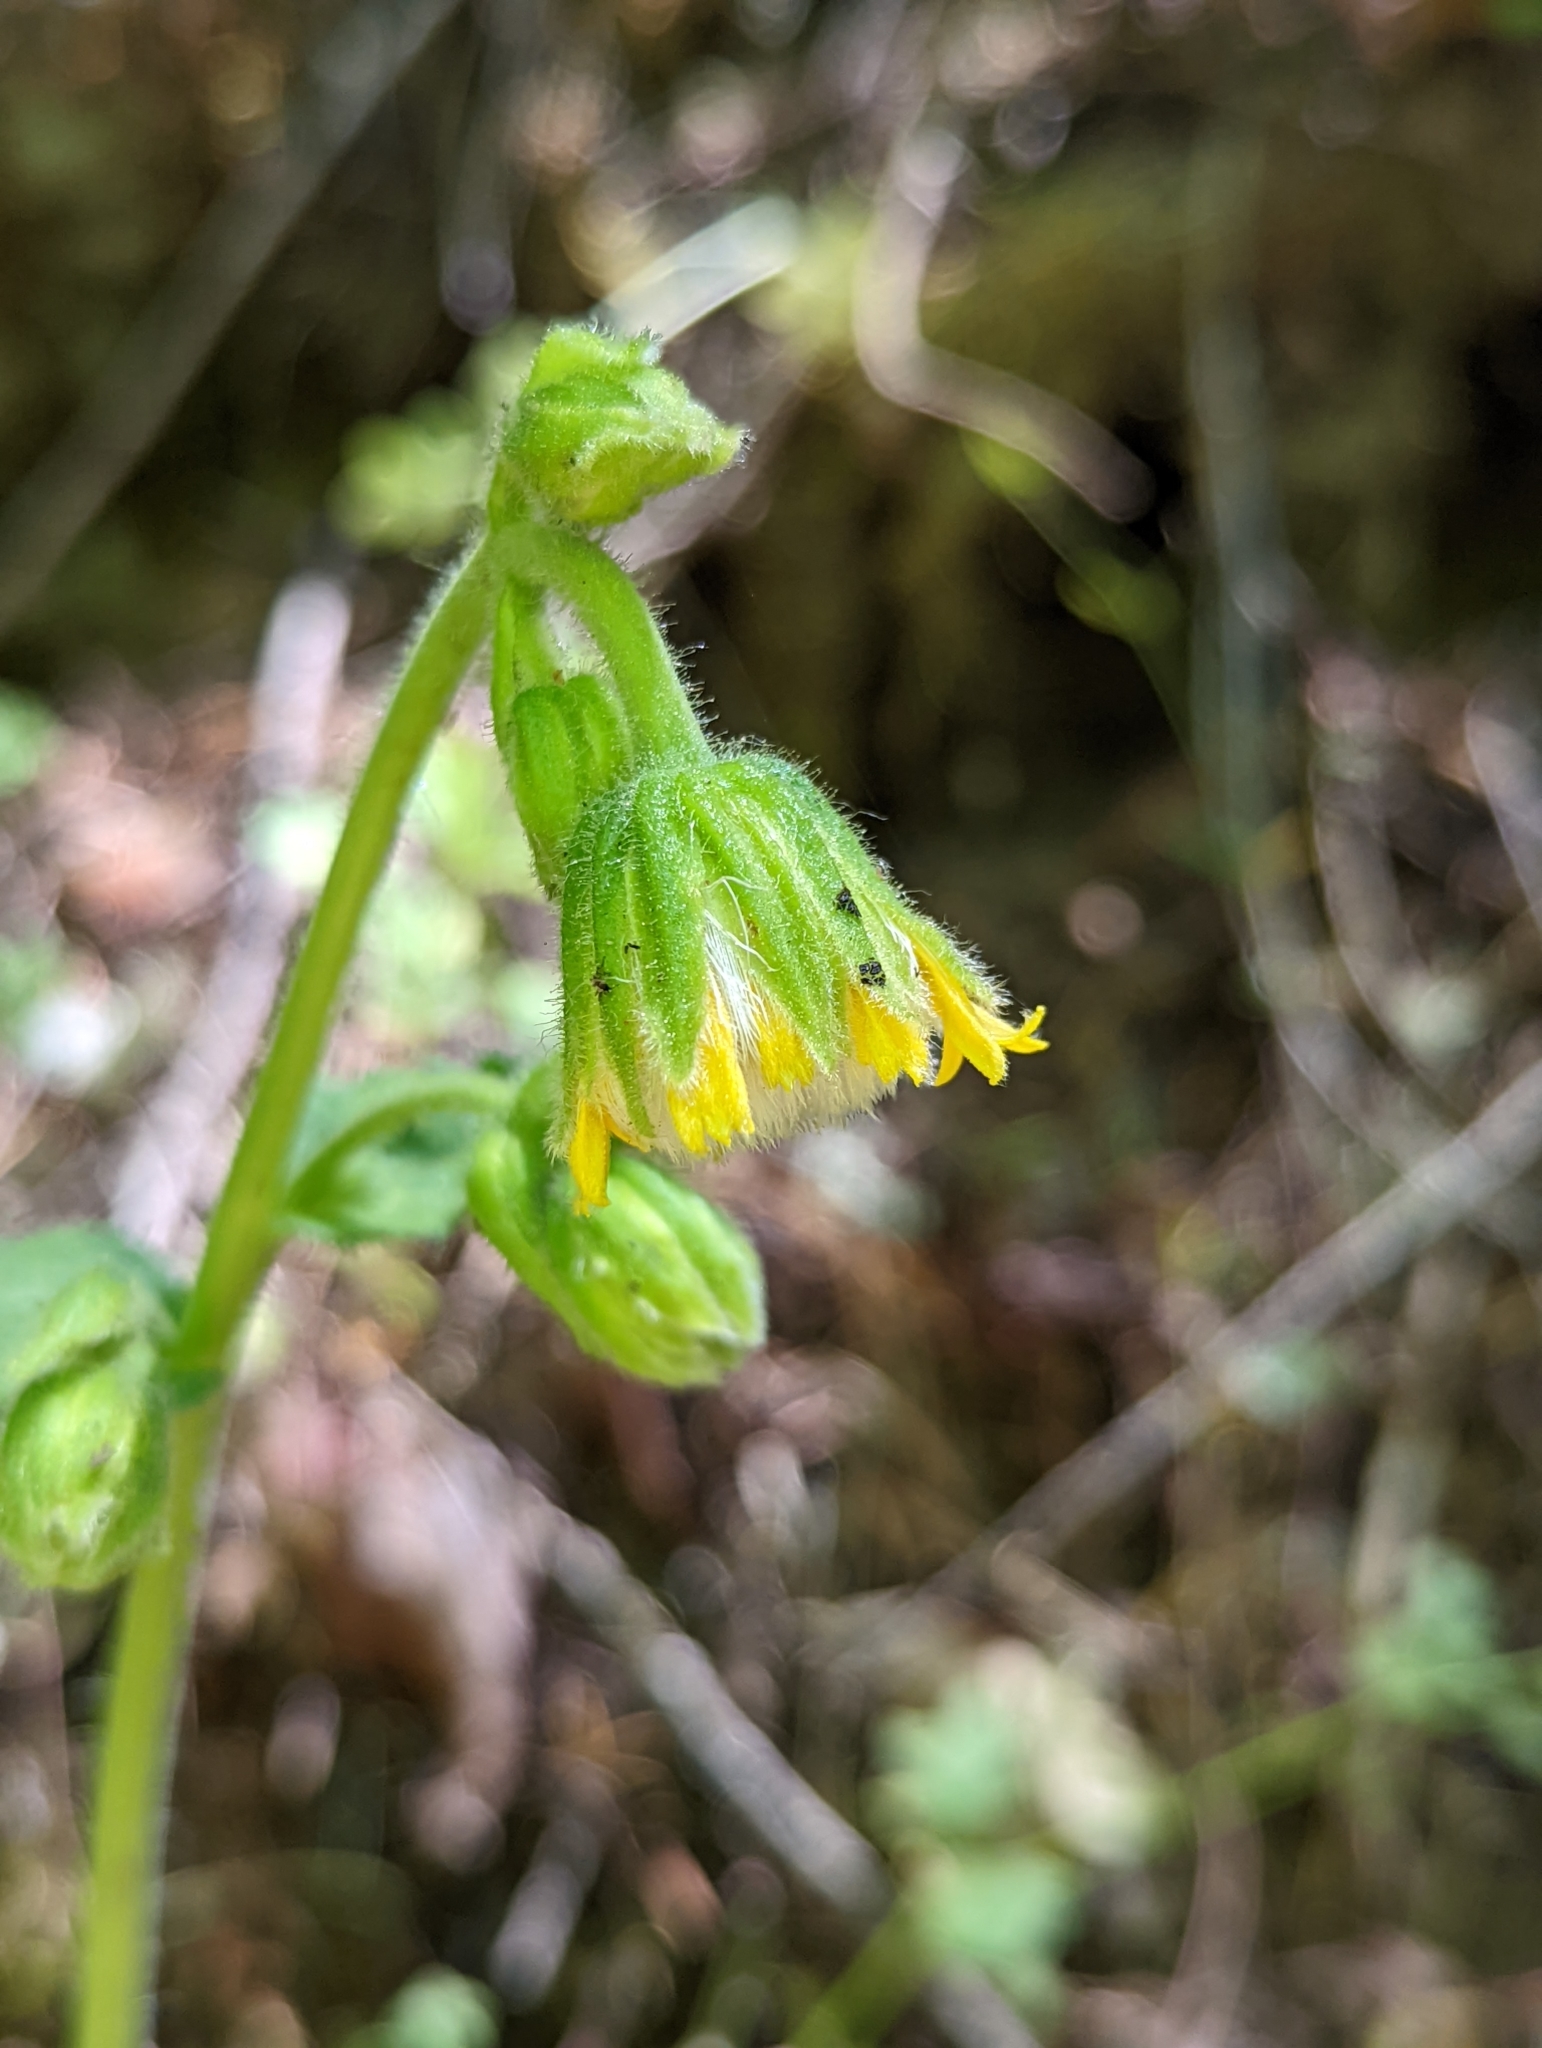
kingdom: Plantae
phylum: Tracheophyta
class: Magnoliopsida
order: Asterales
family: Asteraceae
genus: Arnica
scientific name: Arnica parryi
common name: Parry's arnica
